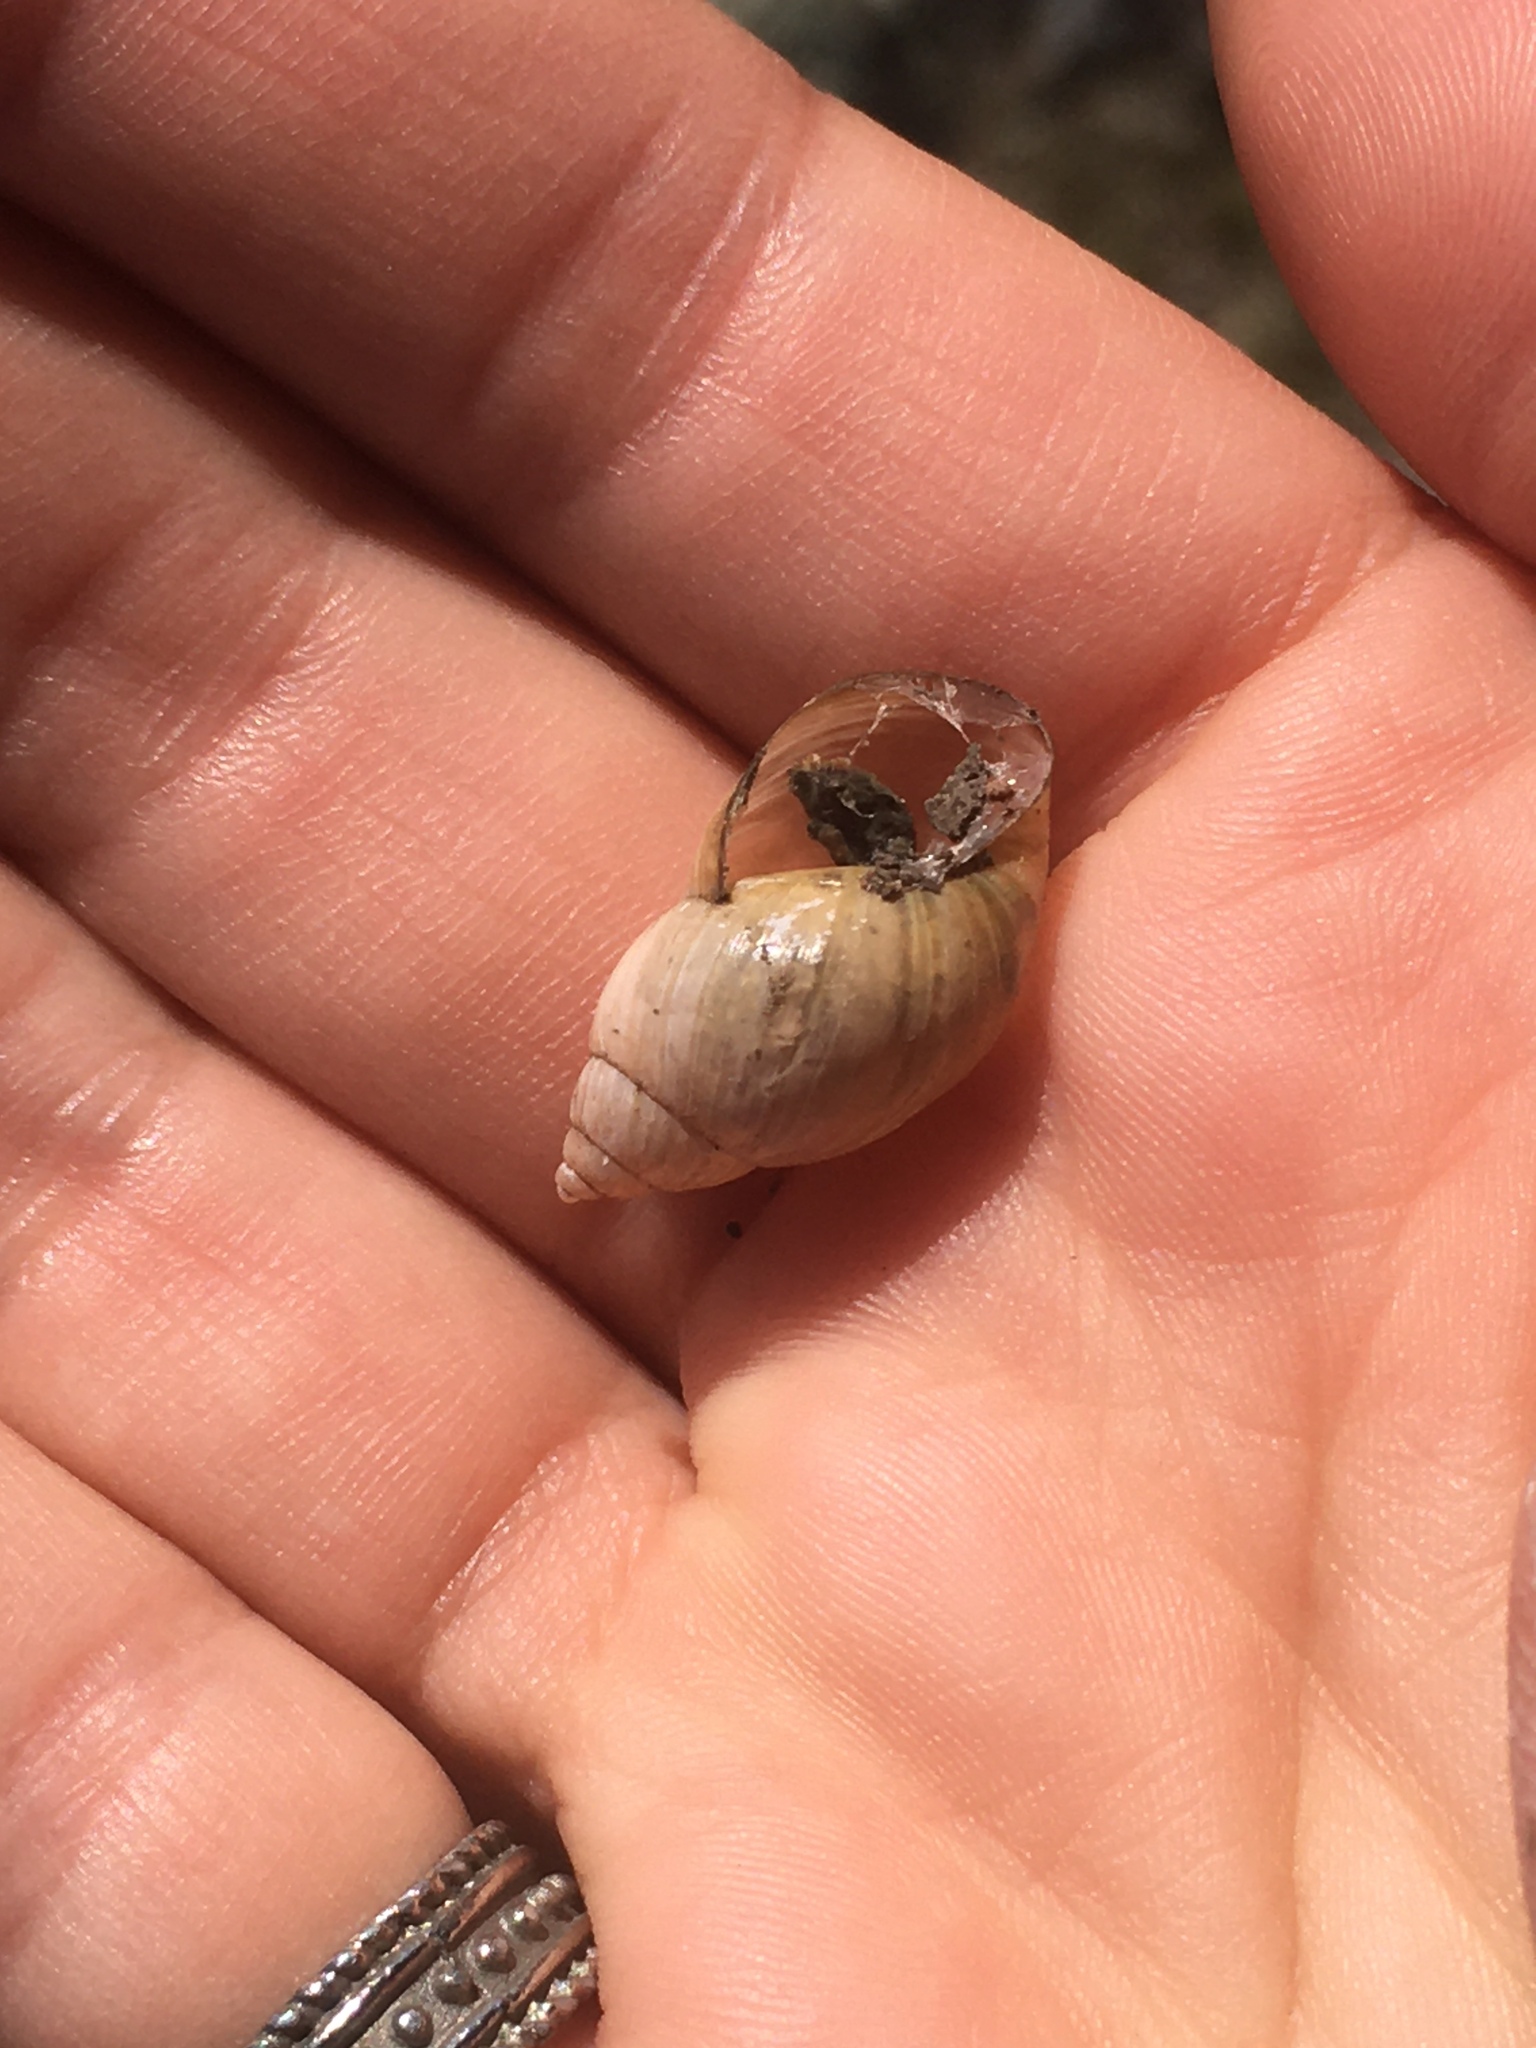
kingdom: Animalia
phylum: Mollusca
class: Gastropoda
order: Stylommatophora
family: Bothriembryontidae
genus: Discoleus
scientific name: Discoleus aguirrei
